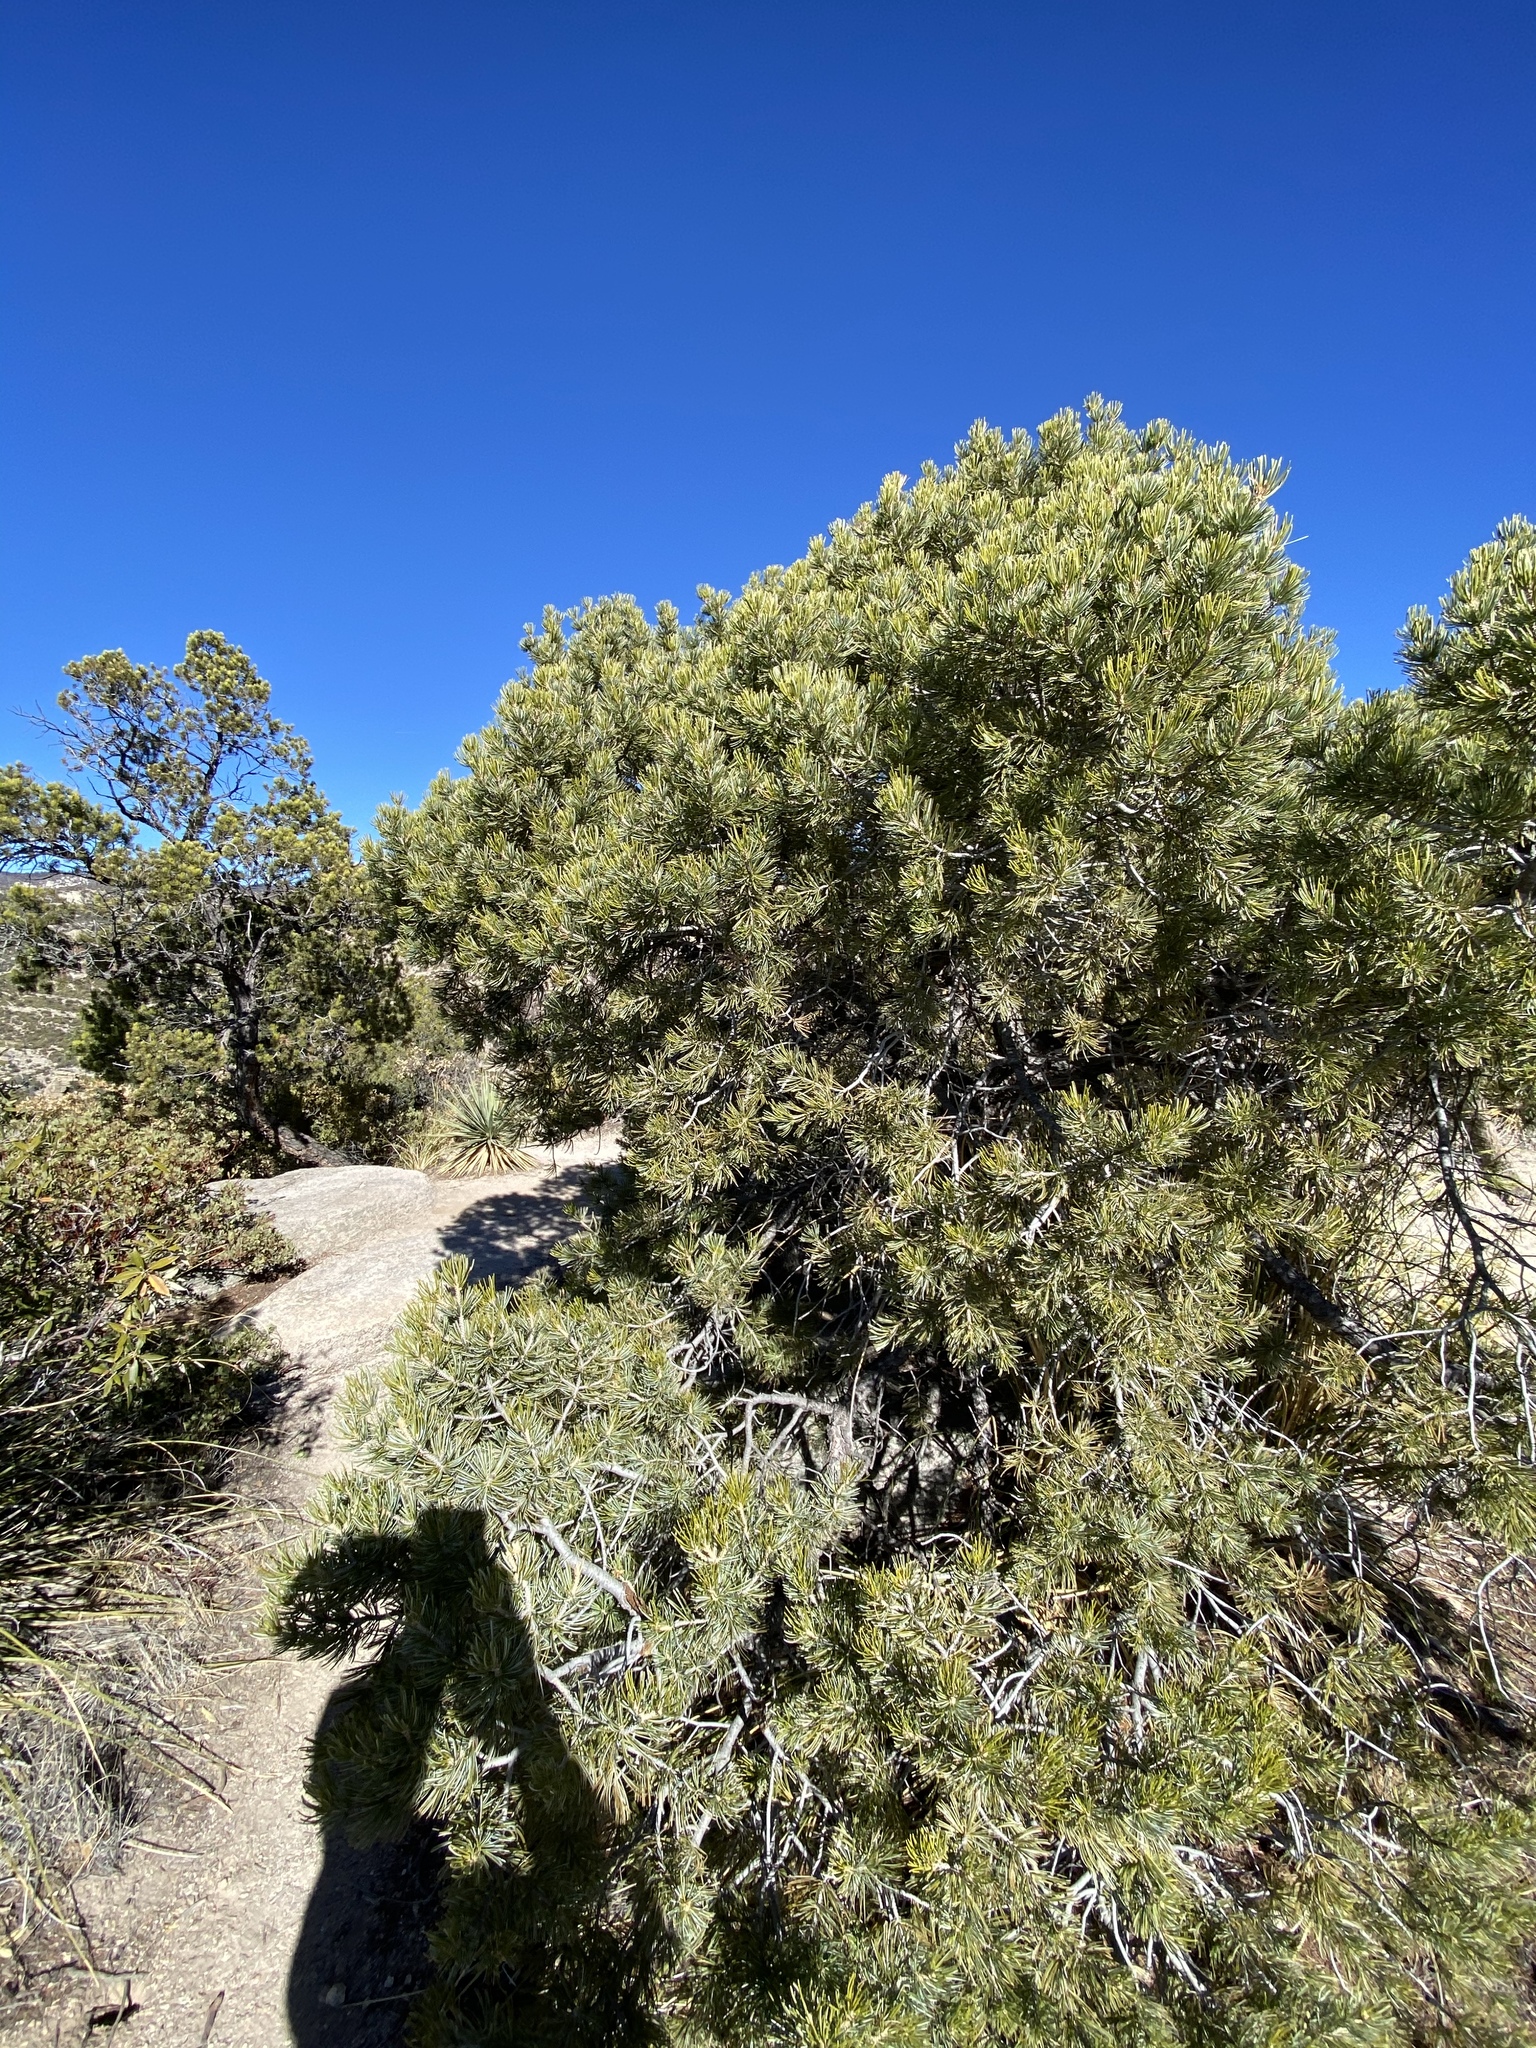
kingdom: Plantae
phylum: Tracheophyta
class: Pinopsida
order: Pinales
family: Pinaceae
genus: Pinus
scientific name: Pinus discolor
